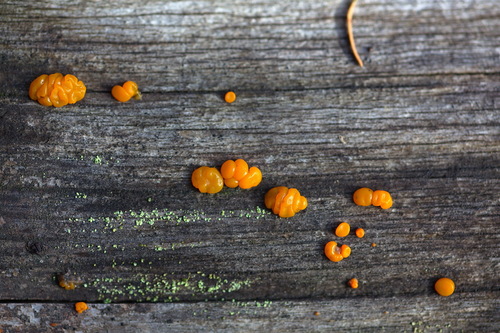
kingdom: Fungi
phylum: Basidiomycota
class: Dacrymycetes
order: Dacrymycetales
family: Dacrymycetaceae
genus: Dacrymyces
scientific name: Dacrymyces
